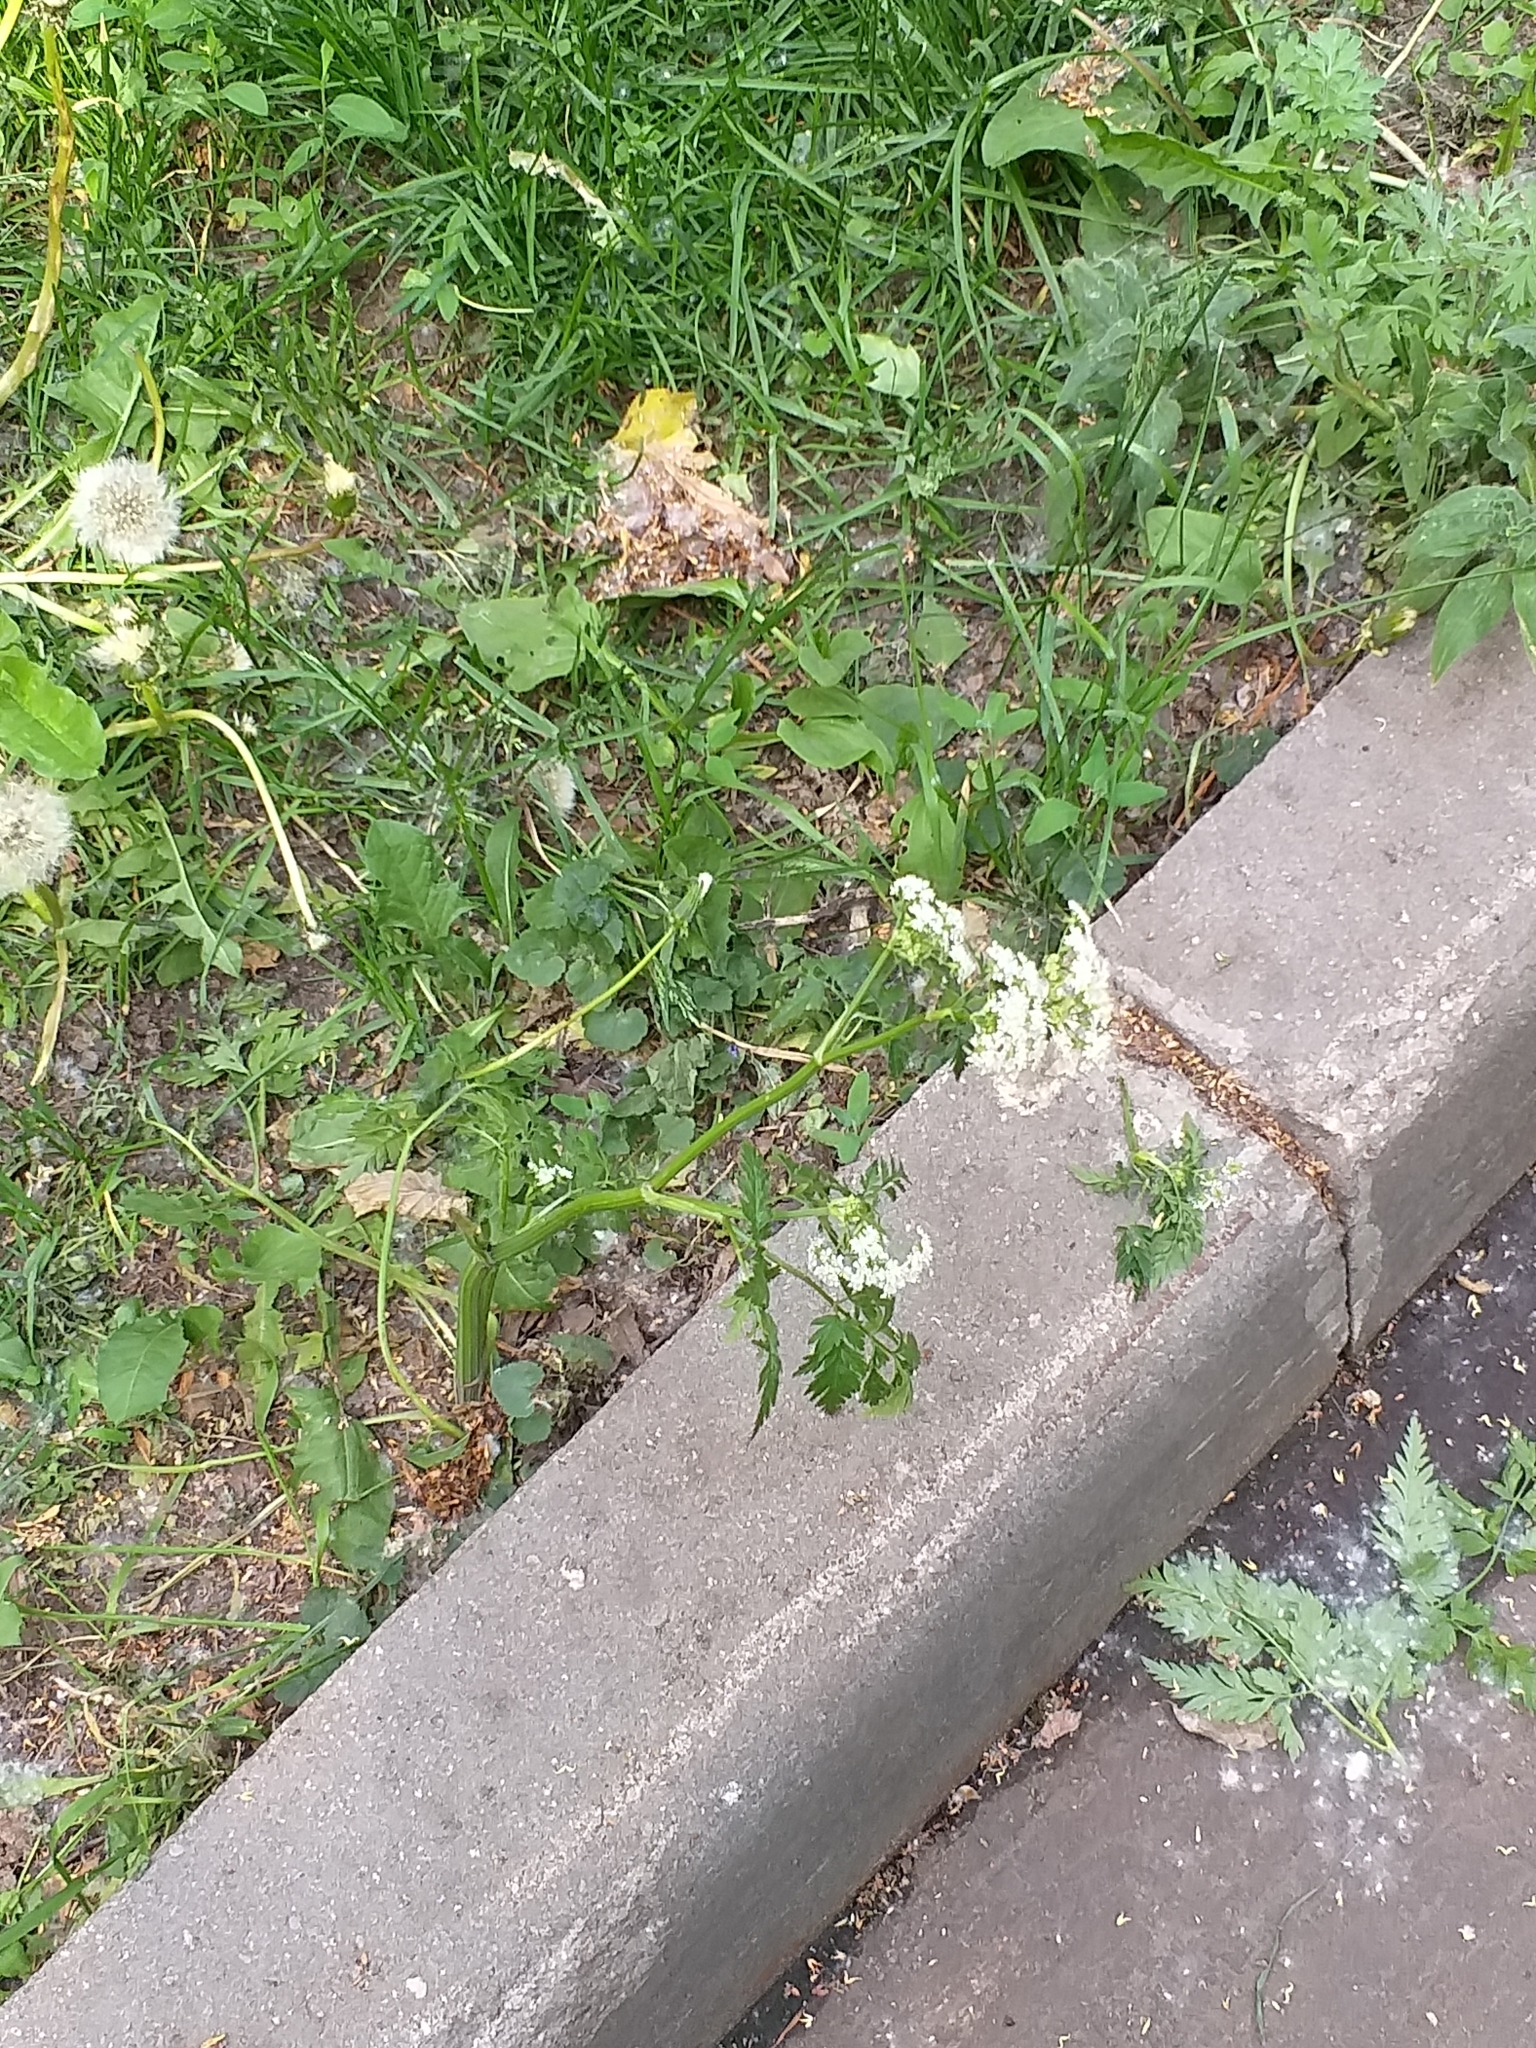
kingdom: Plantae
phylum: Tracheophyta
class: Magnoliopsida
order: Apiales
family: Apiaceae
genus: Anthriscus
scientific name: Anthriscus sylvestris
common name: Cow parsley
